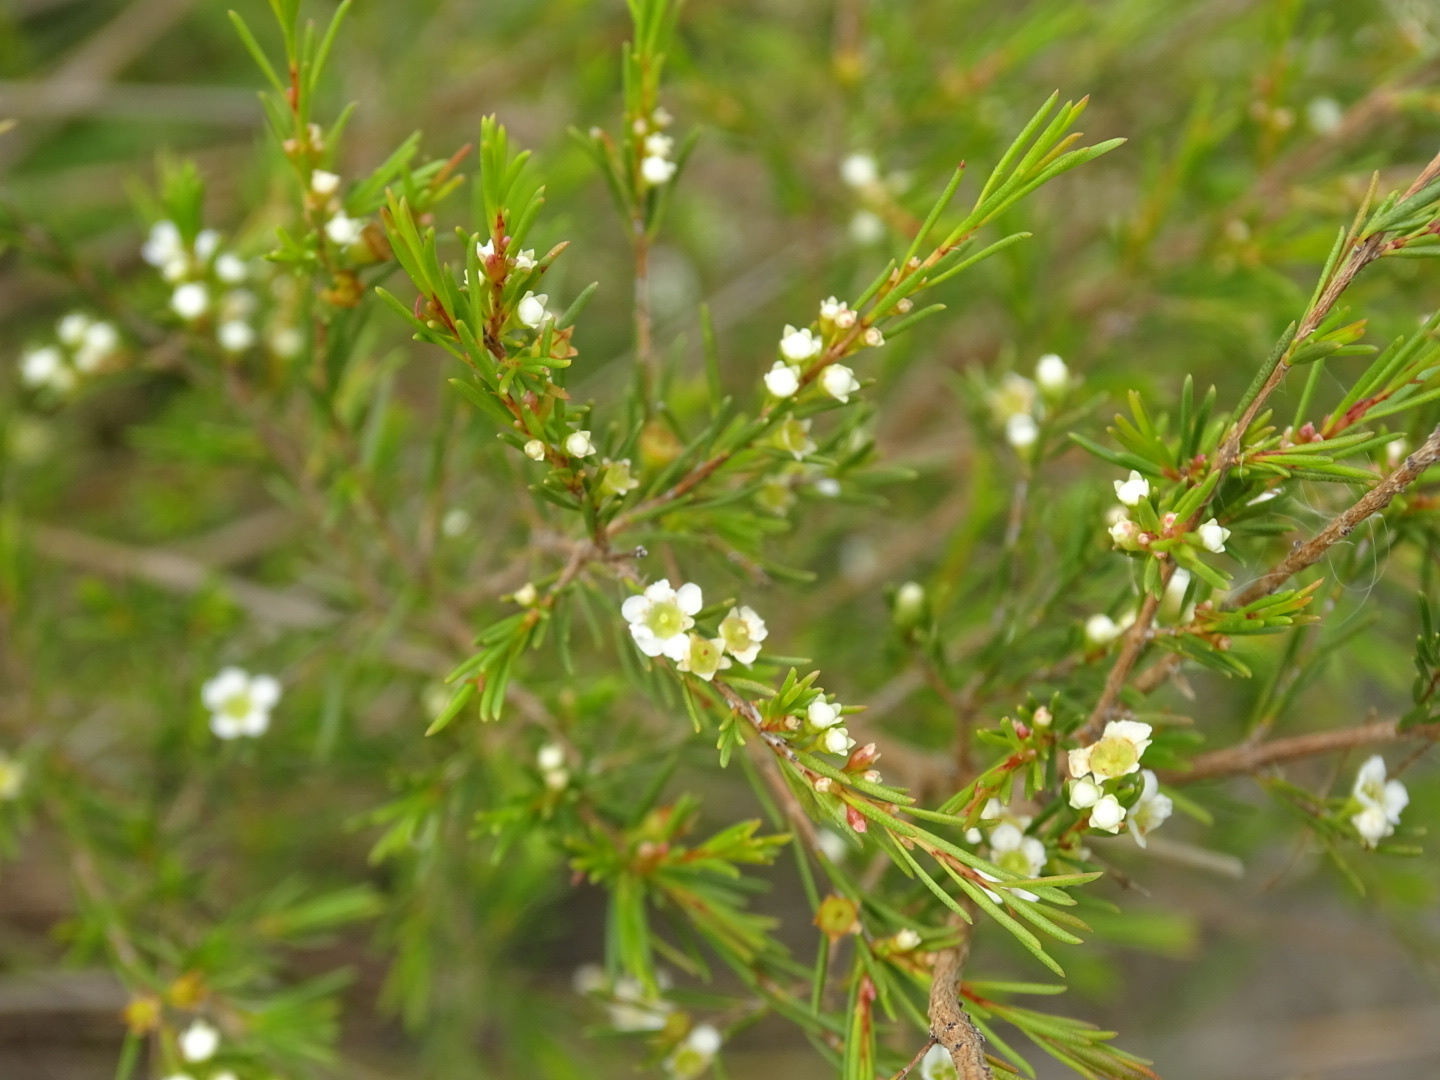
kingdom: Plantae
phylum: Tracheophyta
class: Magnoliopsida
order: Myrtales
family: Myrtaceae
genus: Baeckea
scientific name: Baeckea frutescens
